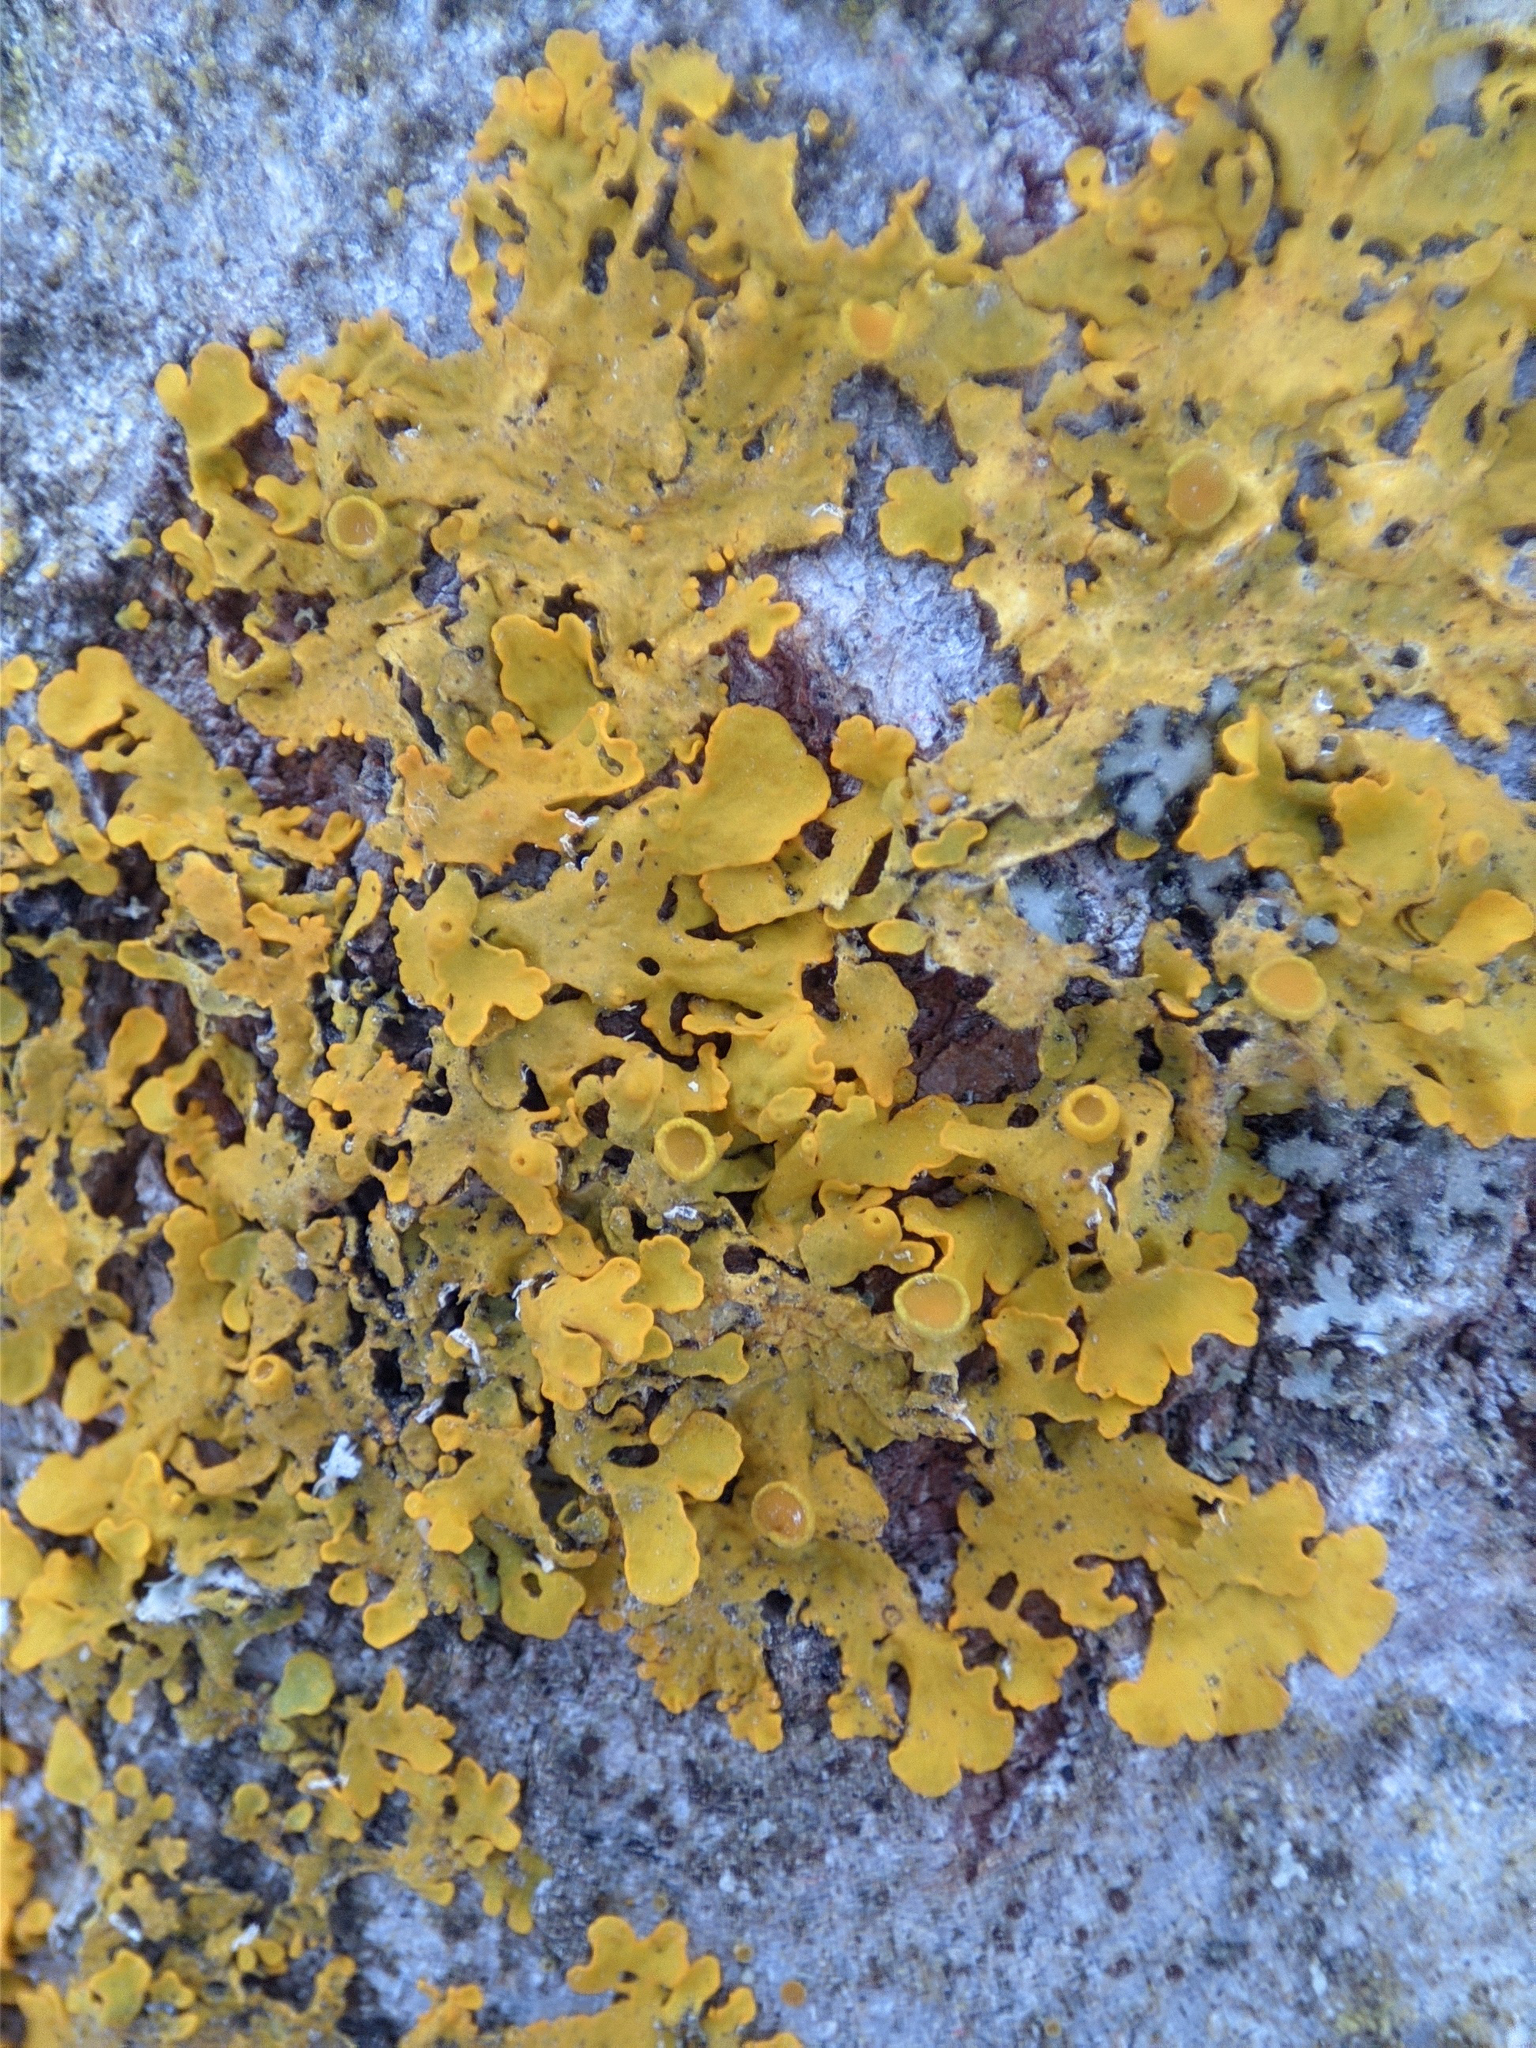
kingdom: Fungi
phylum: Ascomycota
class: Lecanoromycetes
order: Teloschistales
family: Teloschistaceae
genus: Xanthoria
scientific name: Xanthoria parietina
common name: Common orange lichen
